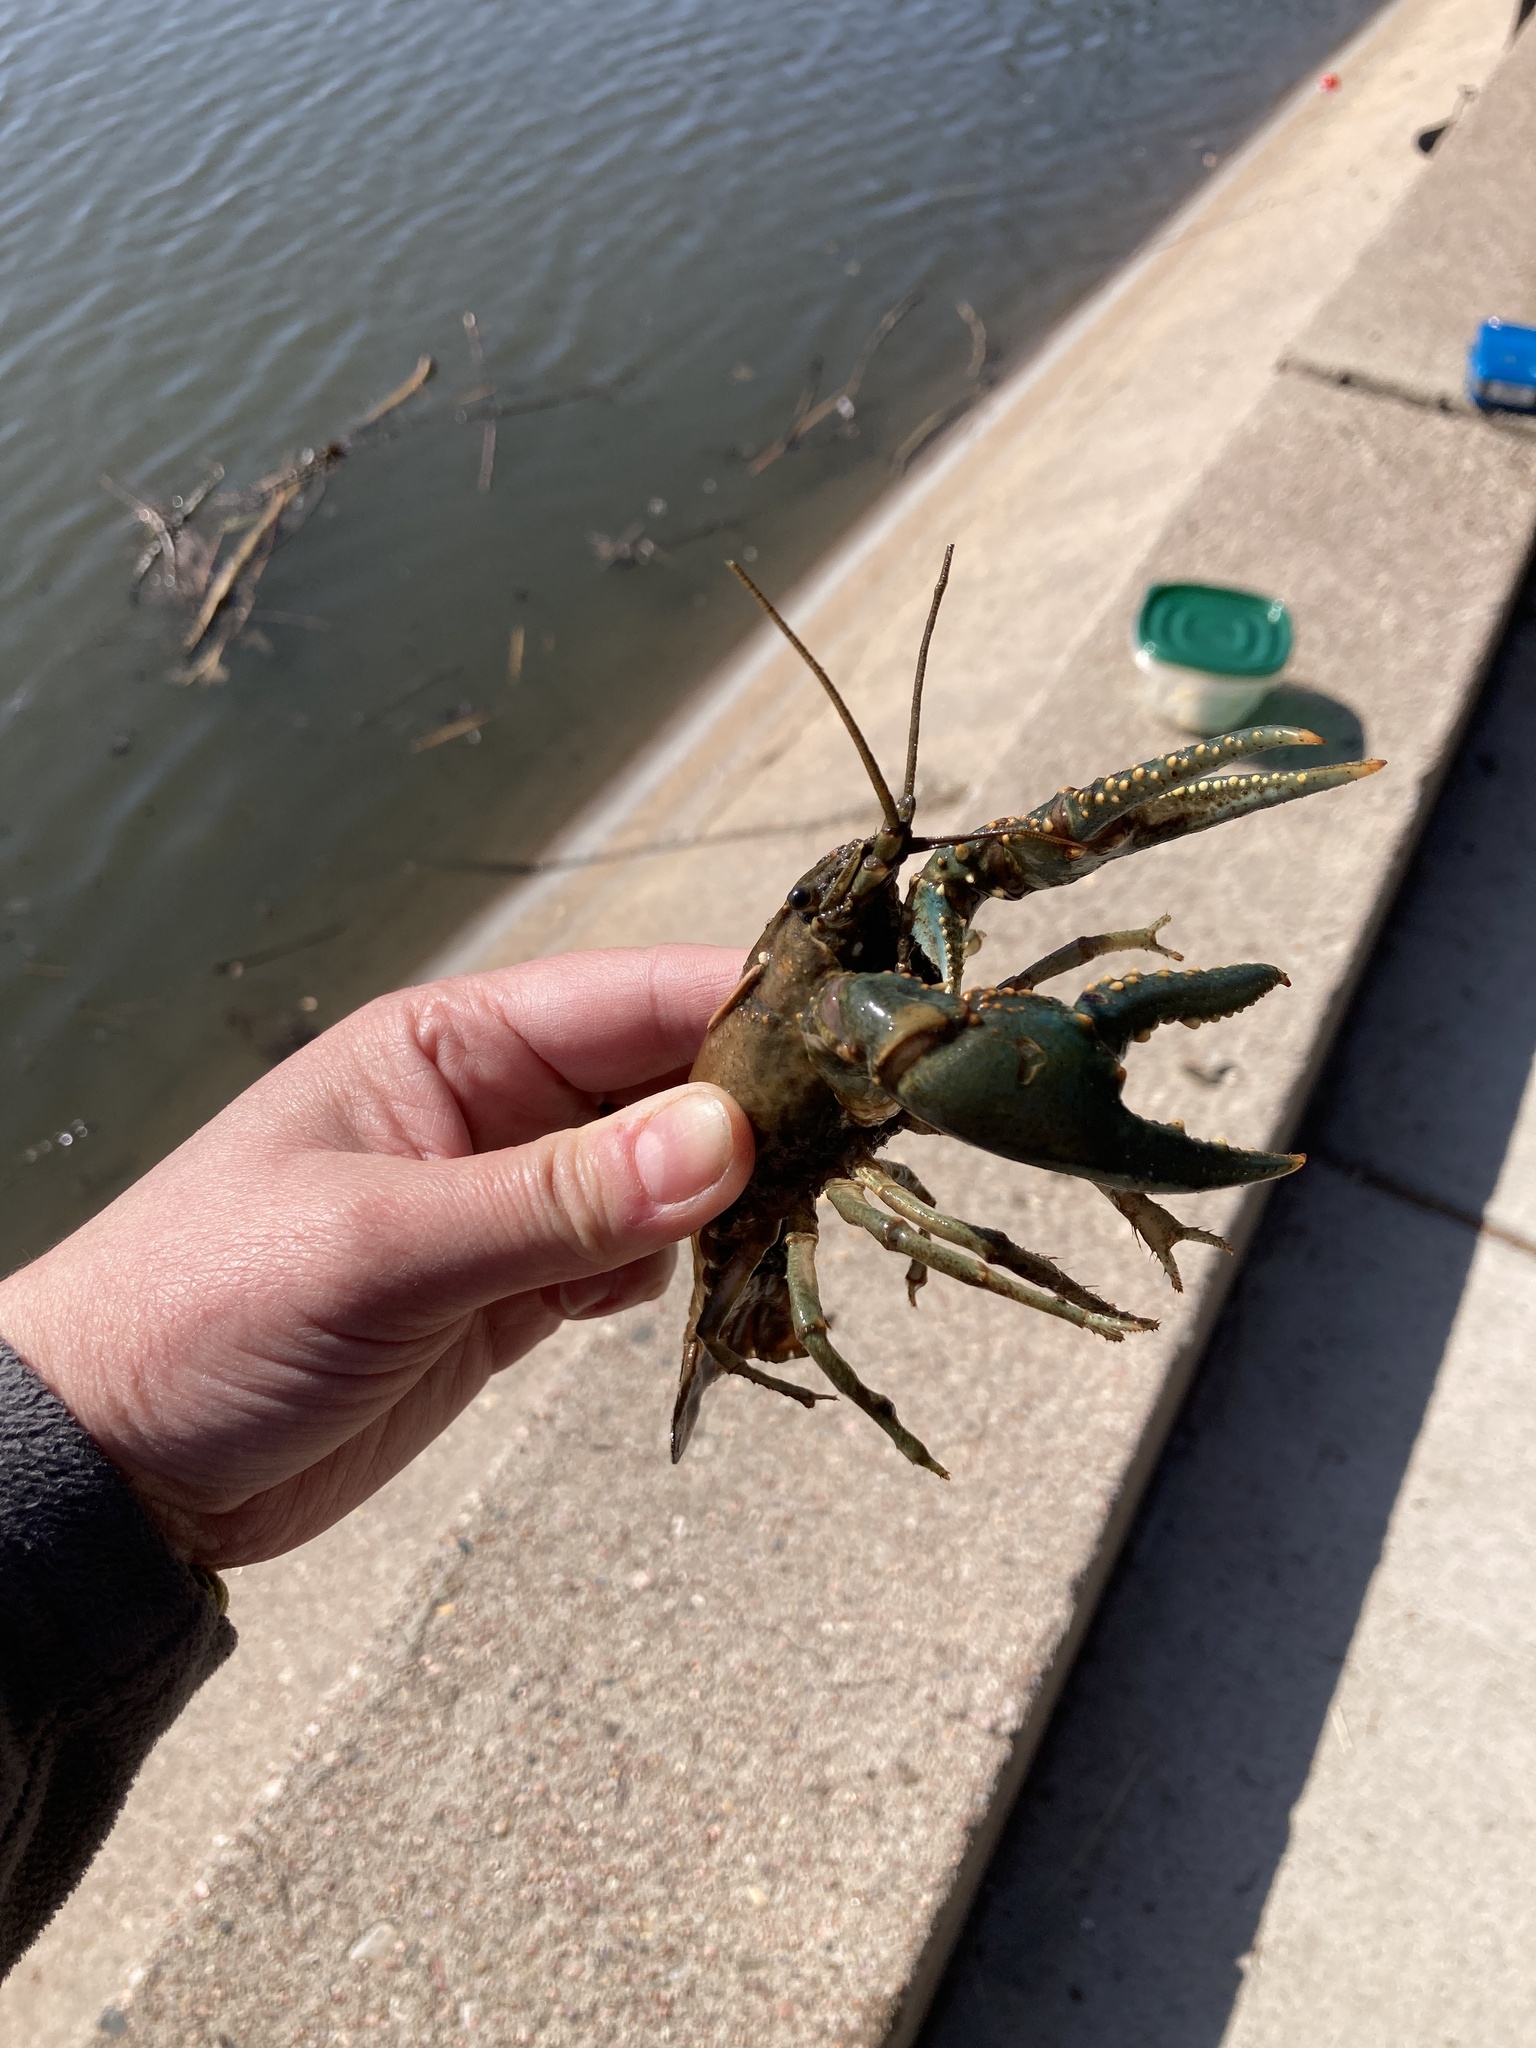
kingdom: Animalia
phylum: Arthropoda
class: Malacostraca
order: Decapoda
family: Cambaridae
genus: Faxonius
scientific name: Faxonius virilis
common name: Virile crayfish
